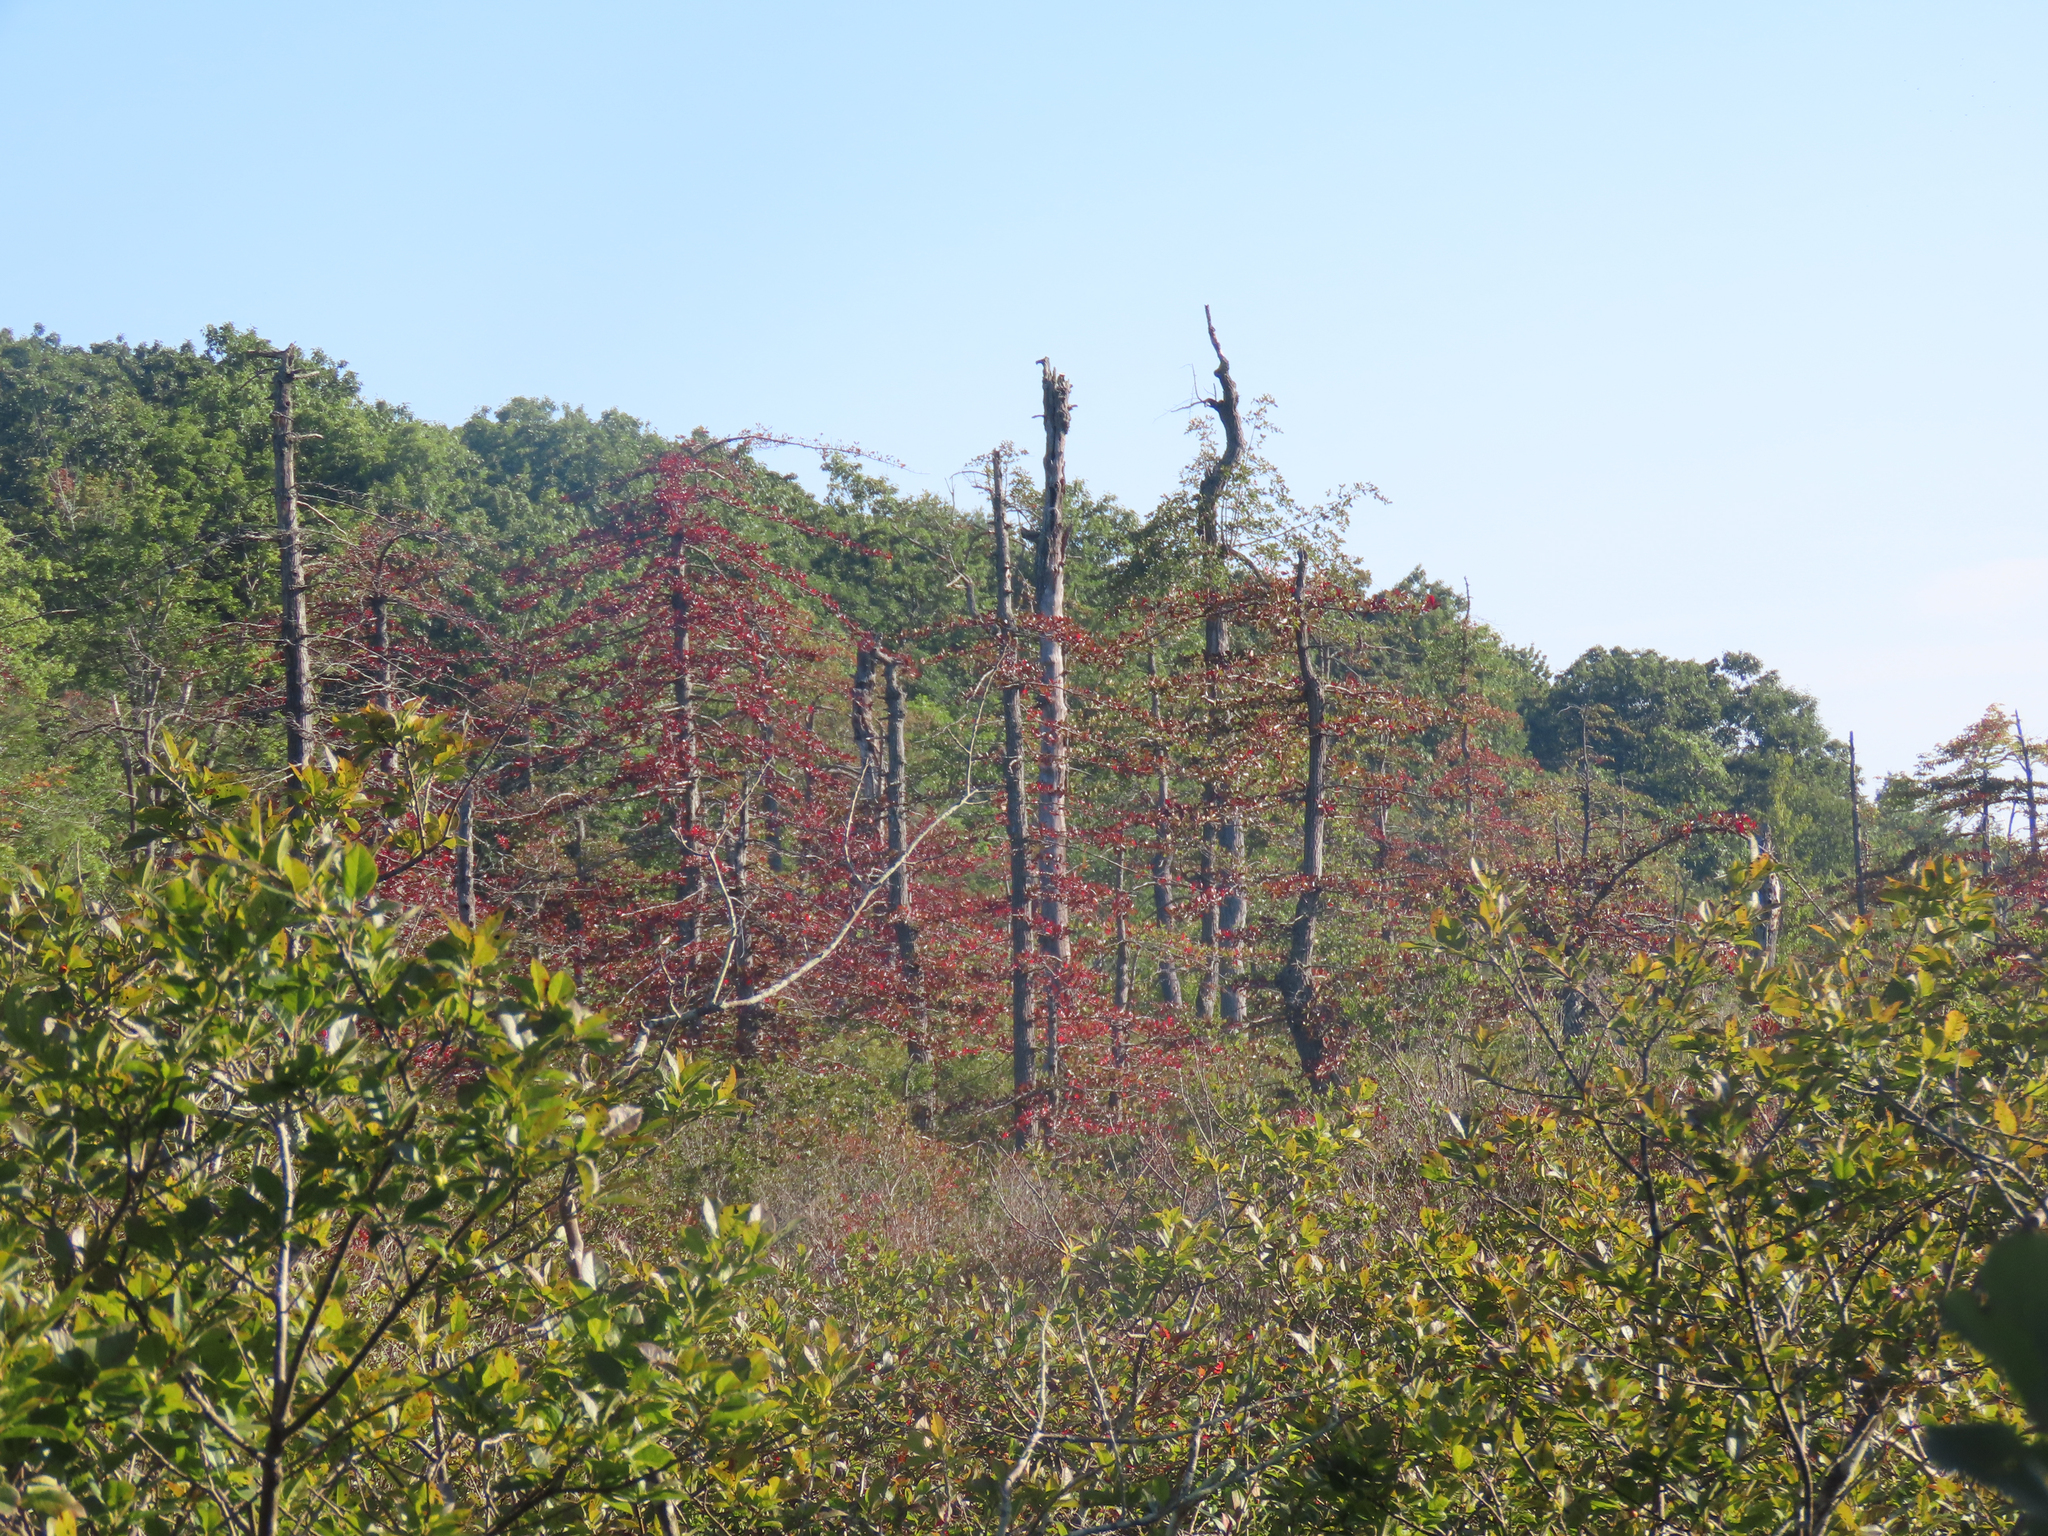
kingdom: Plantae
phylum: Tracheophyta
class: Magnoliopsida
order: Cornales
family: Nyssaceae
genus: Nyssa
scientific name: Nyssa sylvatica
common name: Black tupelo
